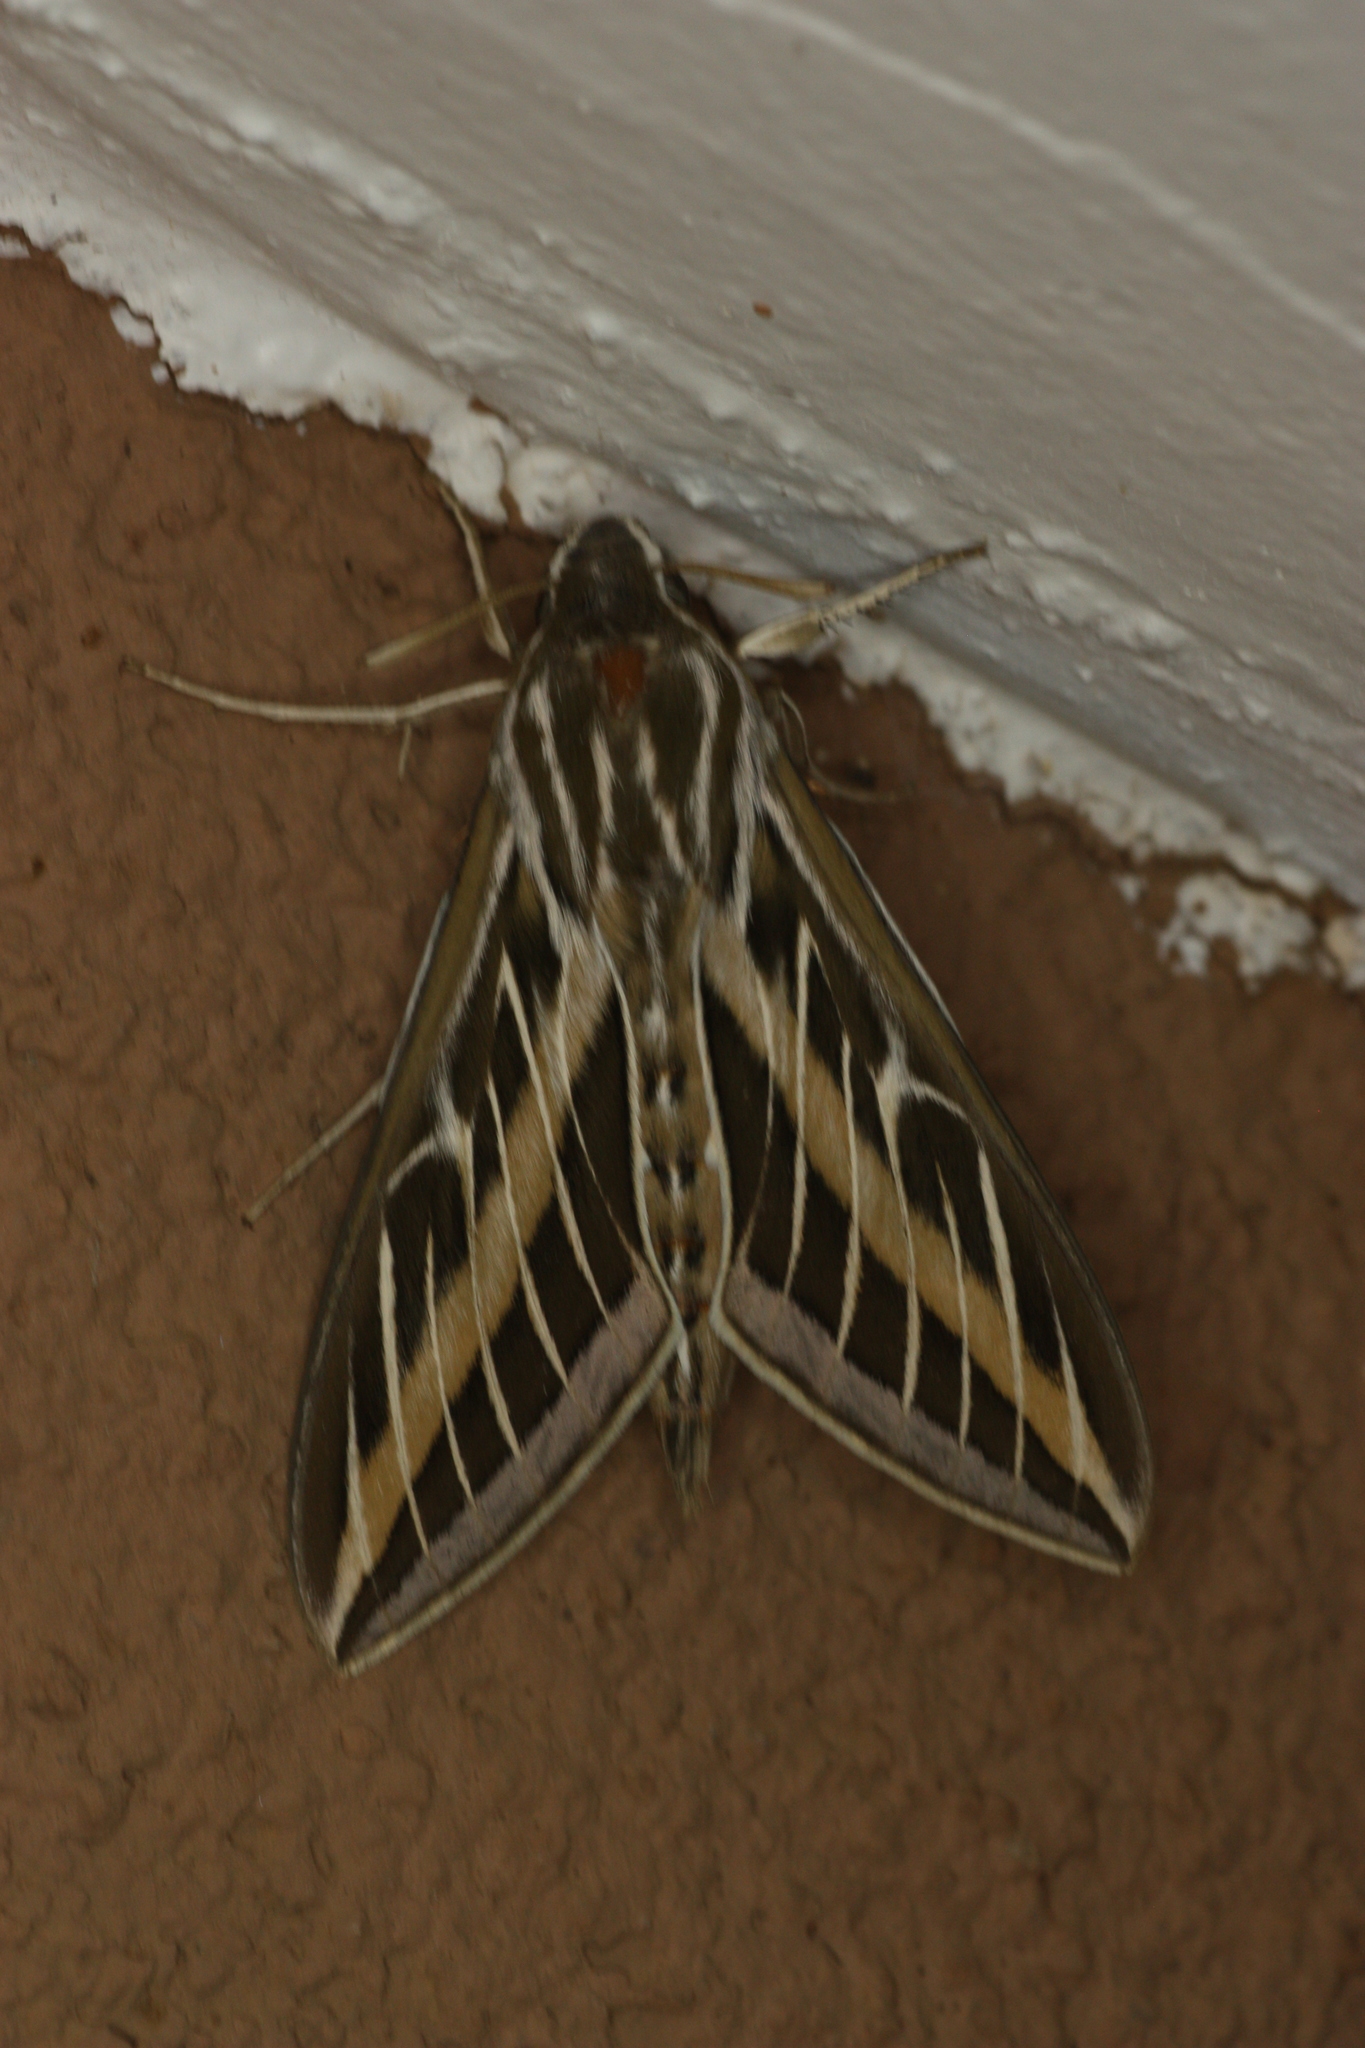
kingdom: Animalia
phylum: Arthropoda
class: Insecta
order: Lepidoptera
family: Sphingidae
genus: Hyles
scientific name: Hyles lineata
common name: White-lined sphinx
